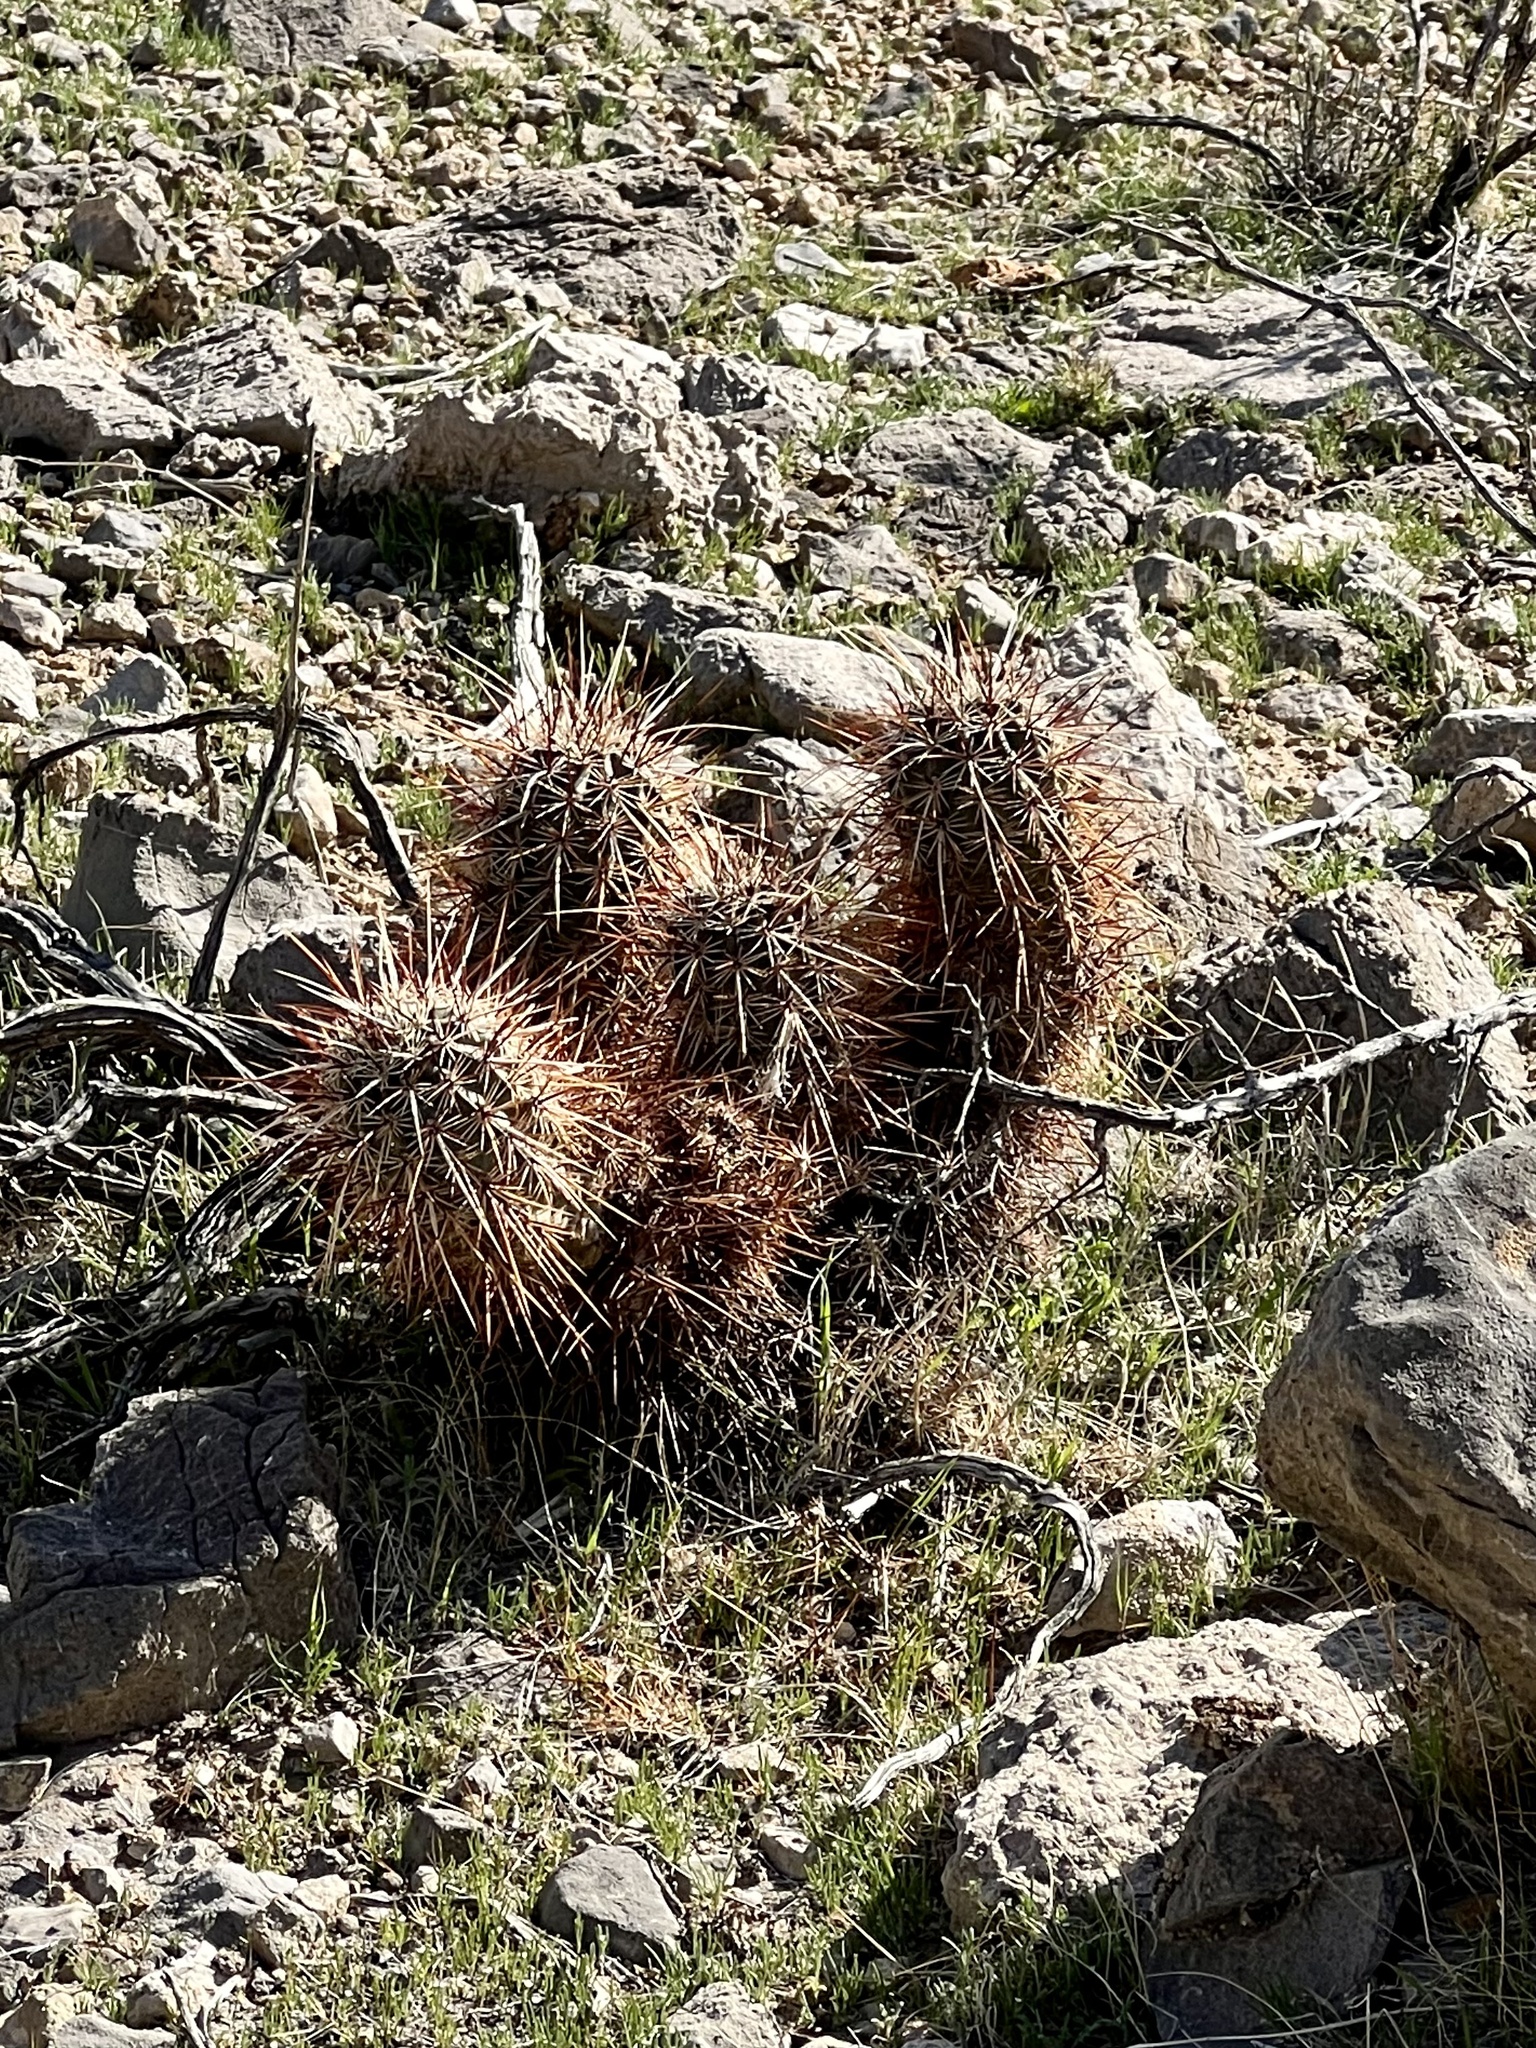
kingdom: Plantae
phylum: Tracheophyta
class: Magnoliopsida
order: Caryophyllales
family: Cactaceae
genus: Echinocereus
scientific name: Echinocereus engelmannii
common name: Engelmann's hedgehog cactus
